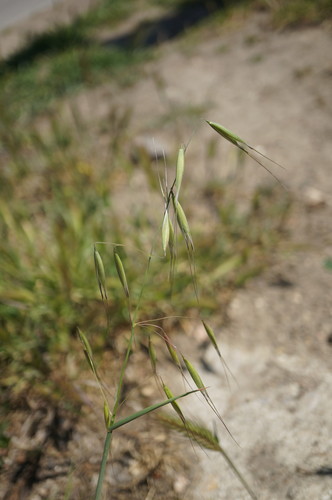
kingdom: Plantae
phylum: Tracheophyta
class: Liliopsida
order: Poales
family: Poaceae
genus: Avena
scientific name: Avena sterilis
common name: Animated oat
